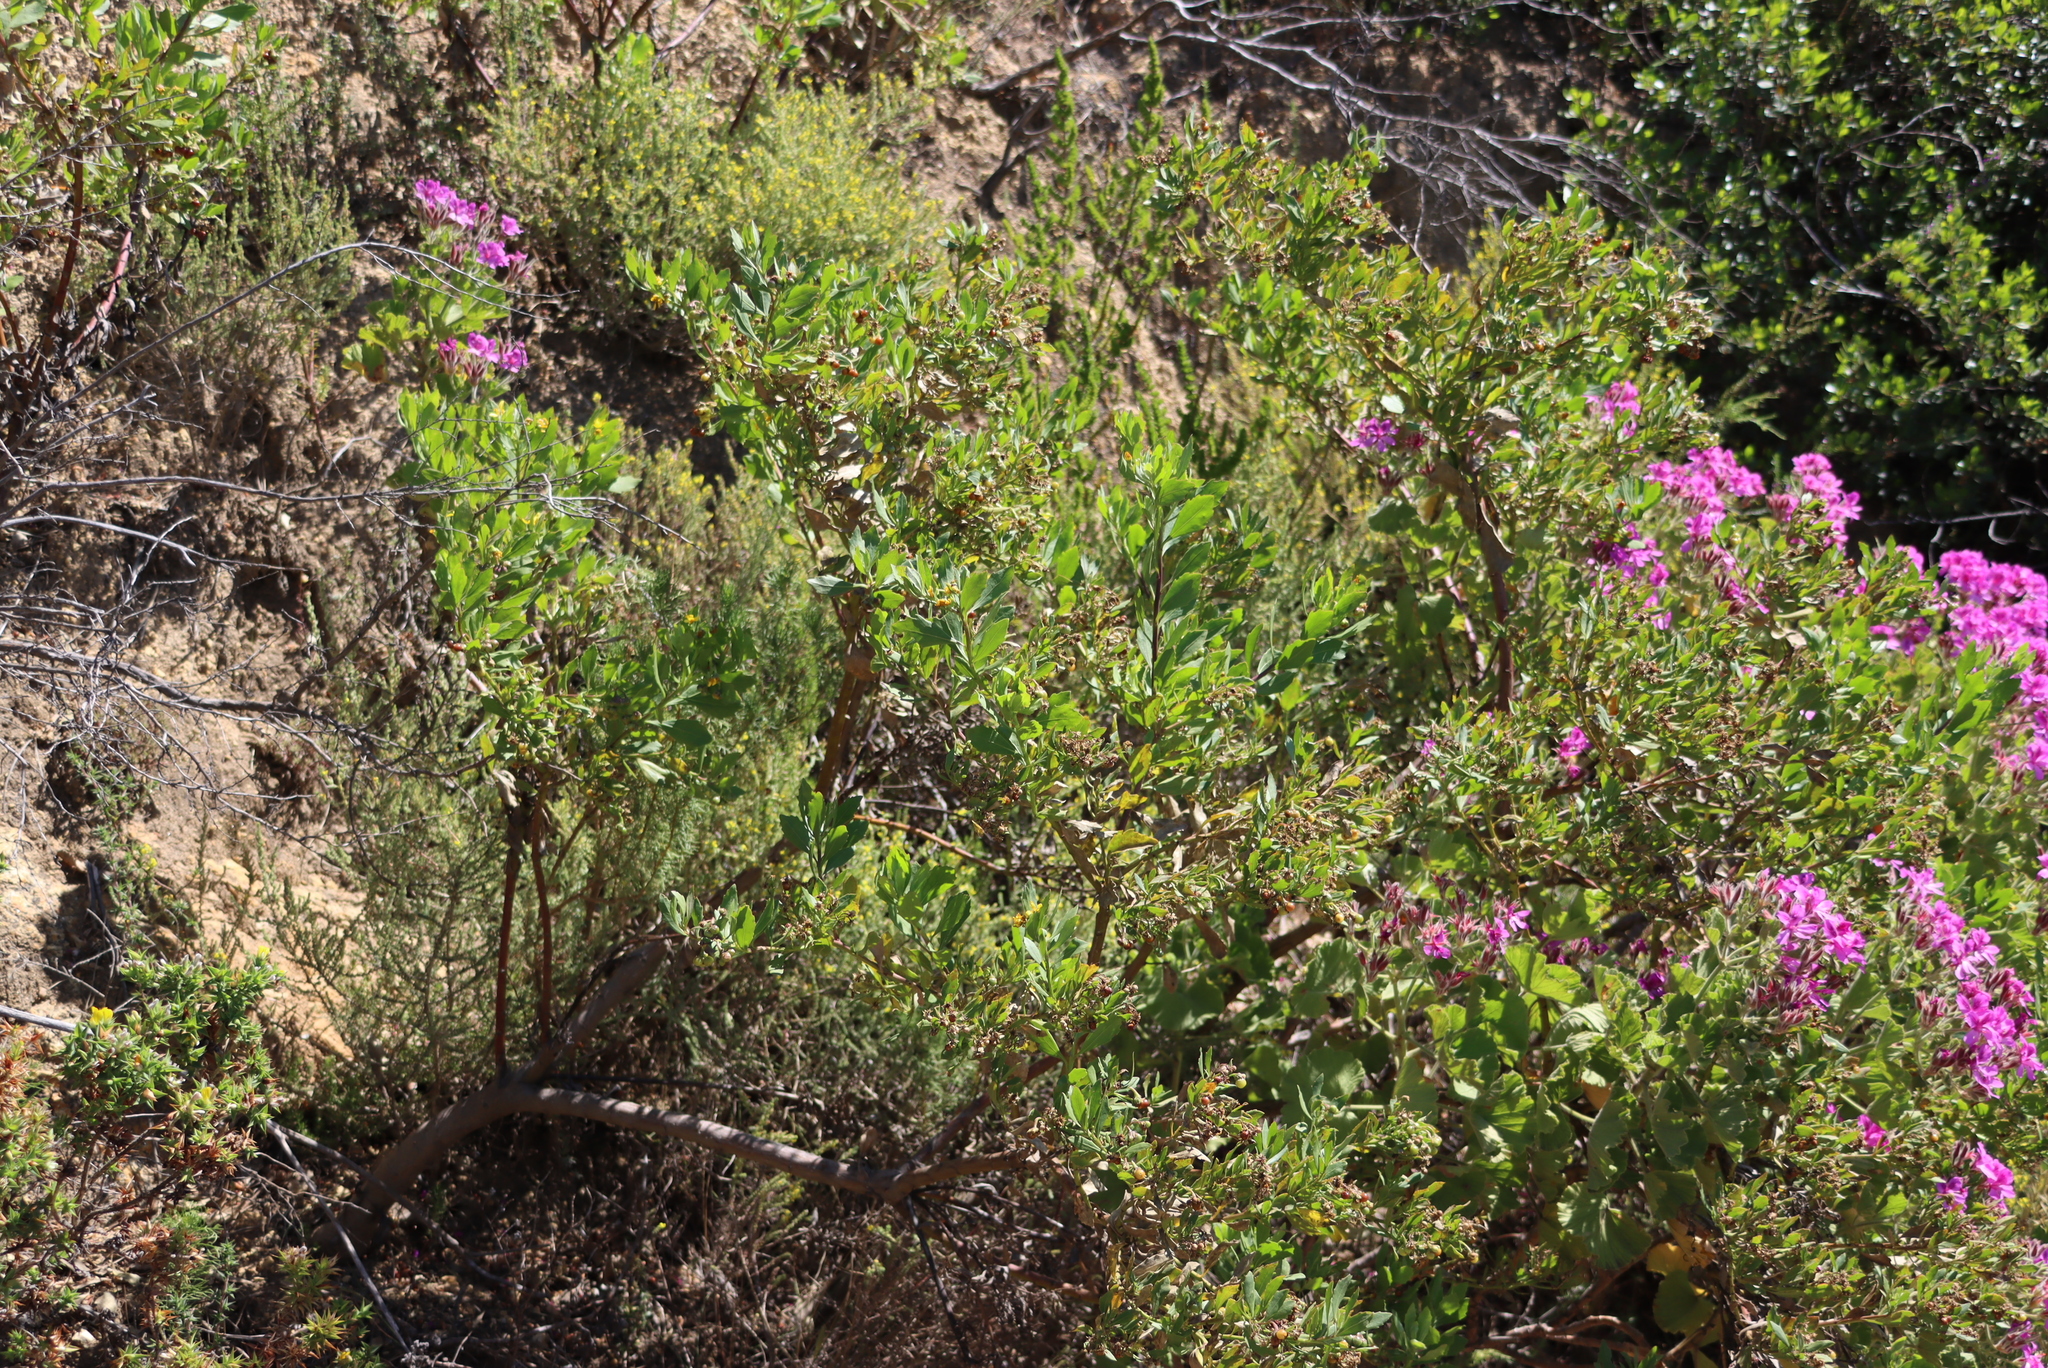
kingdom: Plantae
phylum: Tracheophyta
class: Magnoliopsida
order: Asterales
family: Asteraceae
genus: Osteospermum
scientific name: Osteospermum moniliferum
